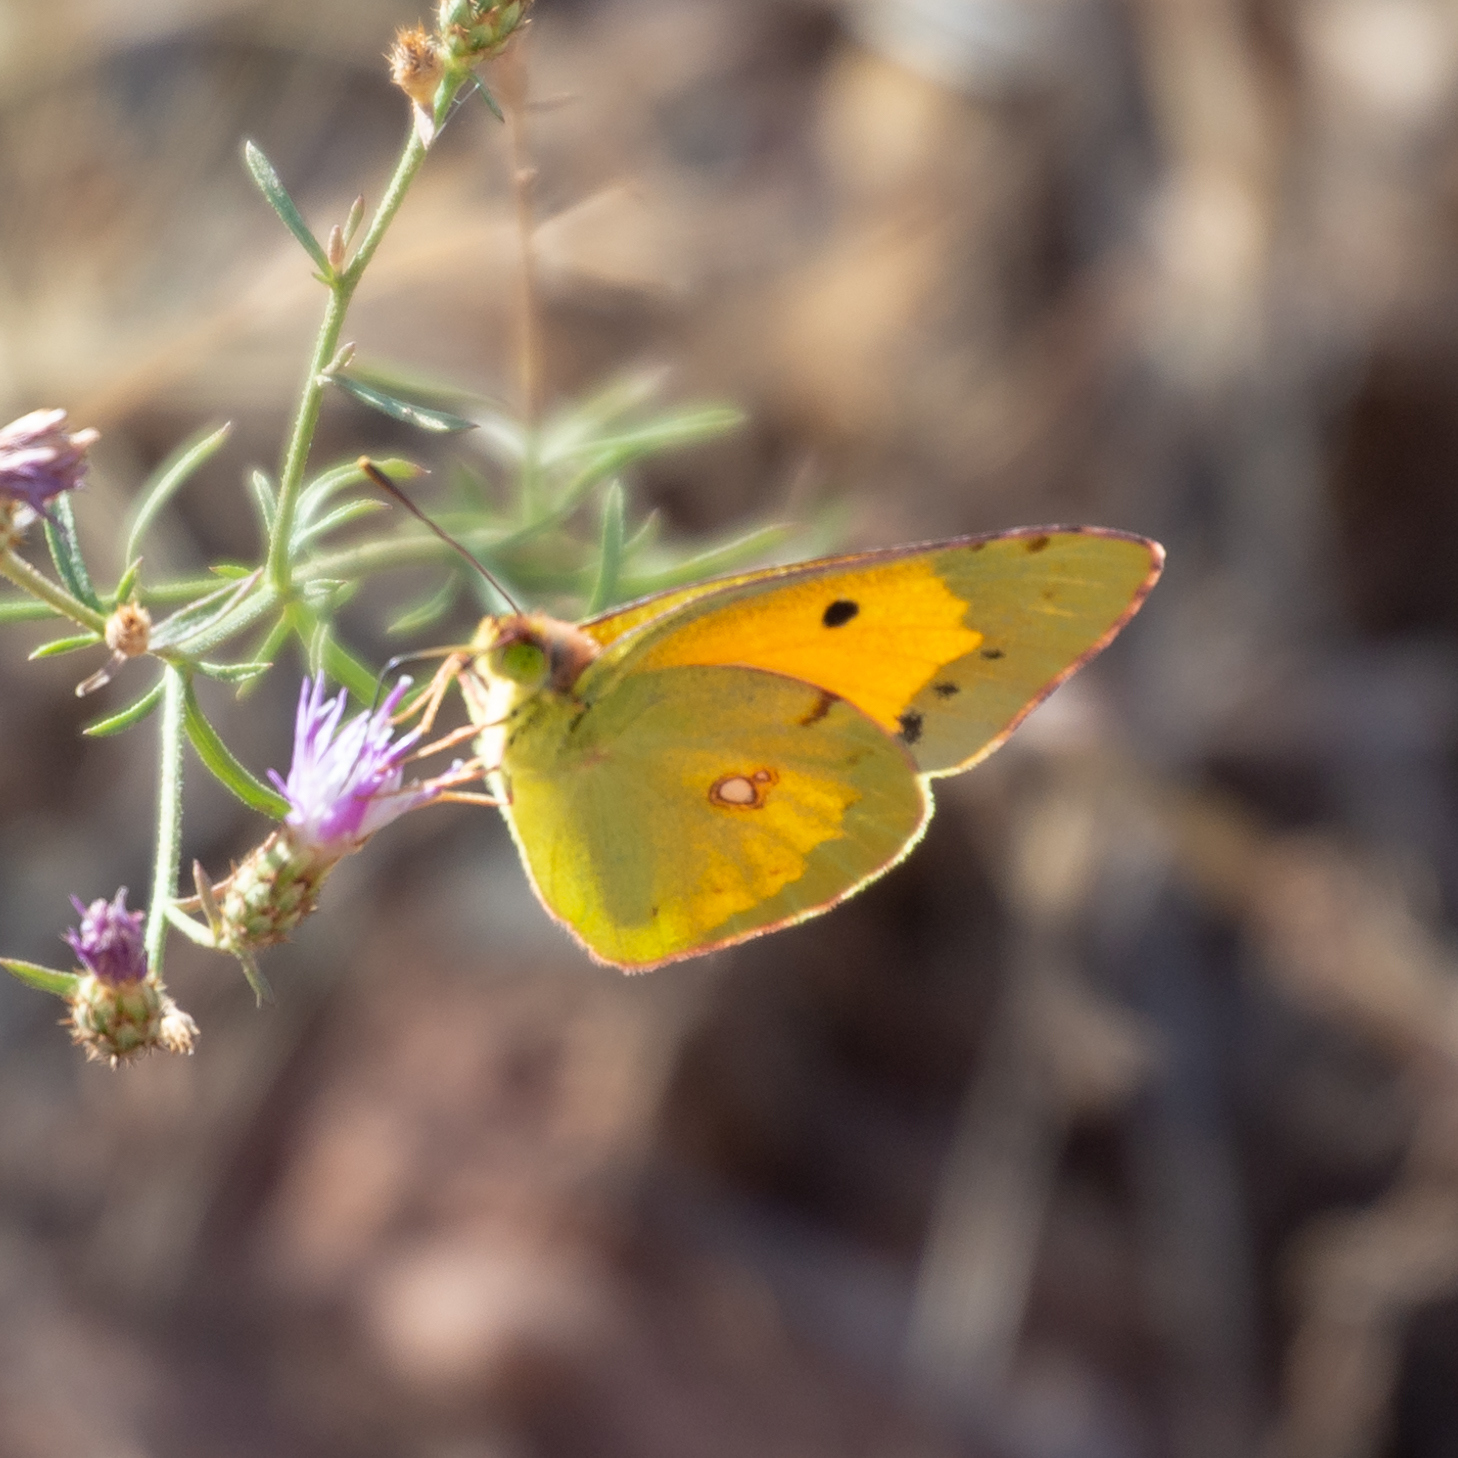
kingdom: Animalia
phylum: Arthropoda
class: Insecta
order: Lepidoptera
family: Pieridae
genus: Colias
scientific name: Colias croceus
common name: Clouded yellow
